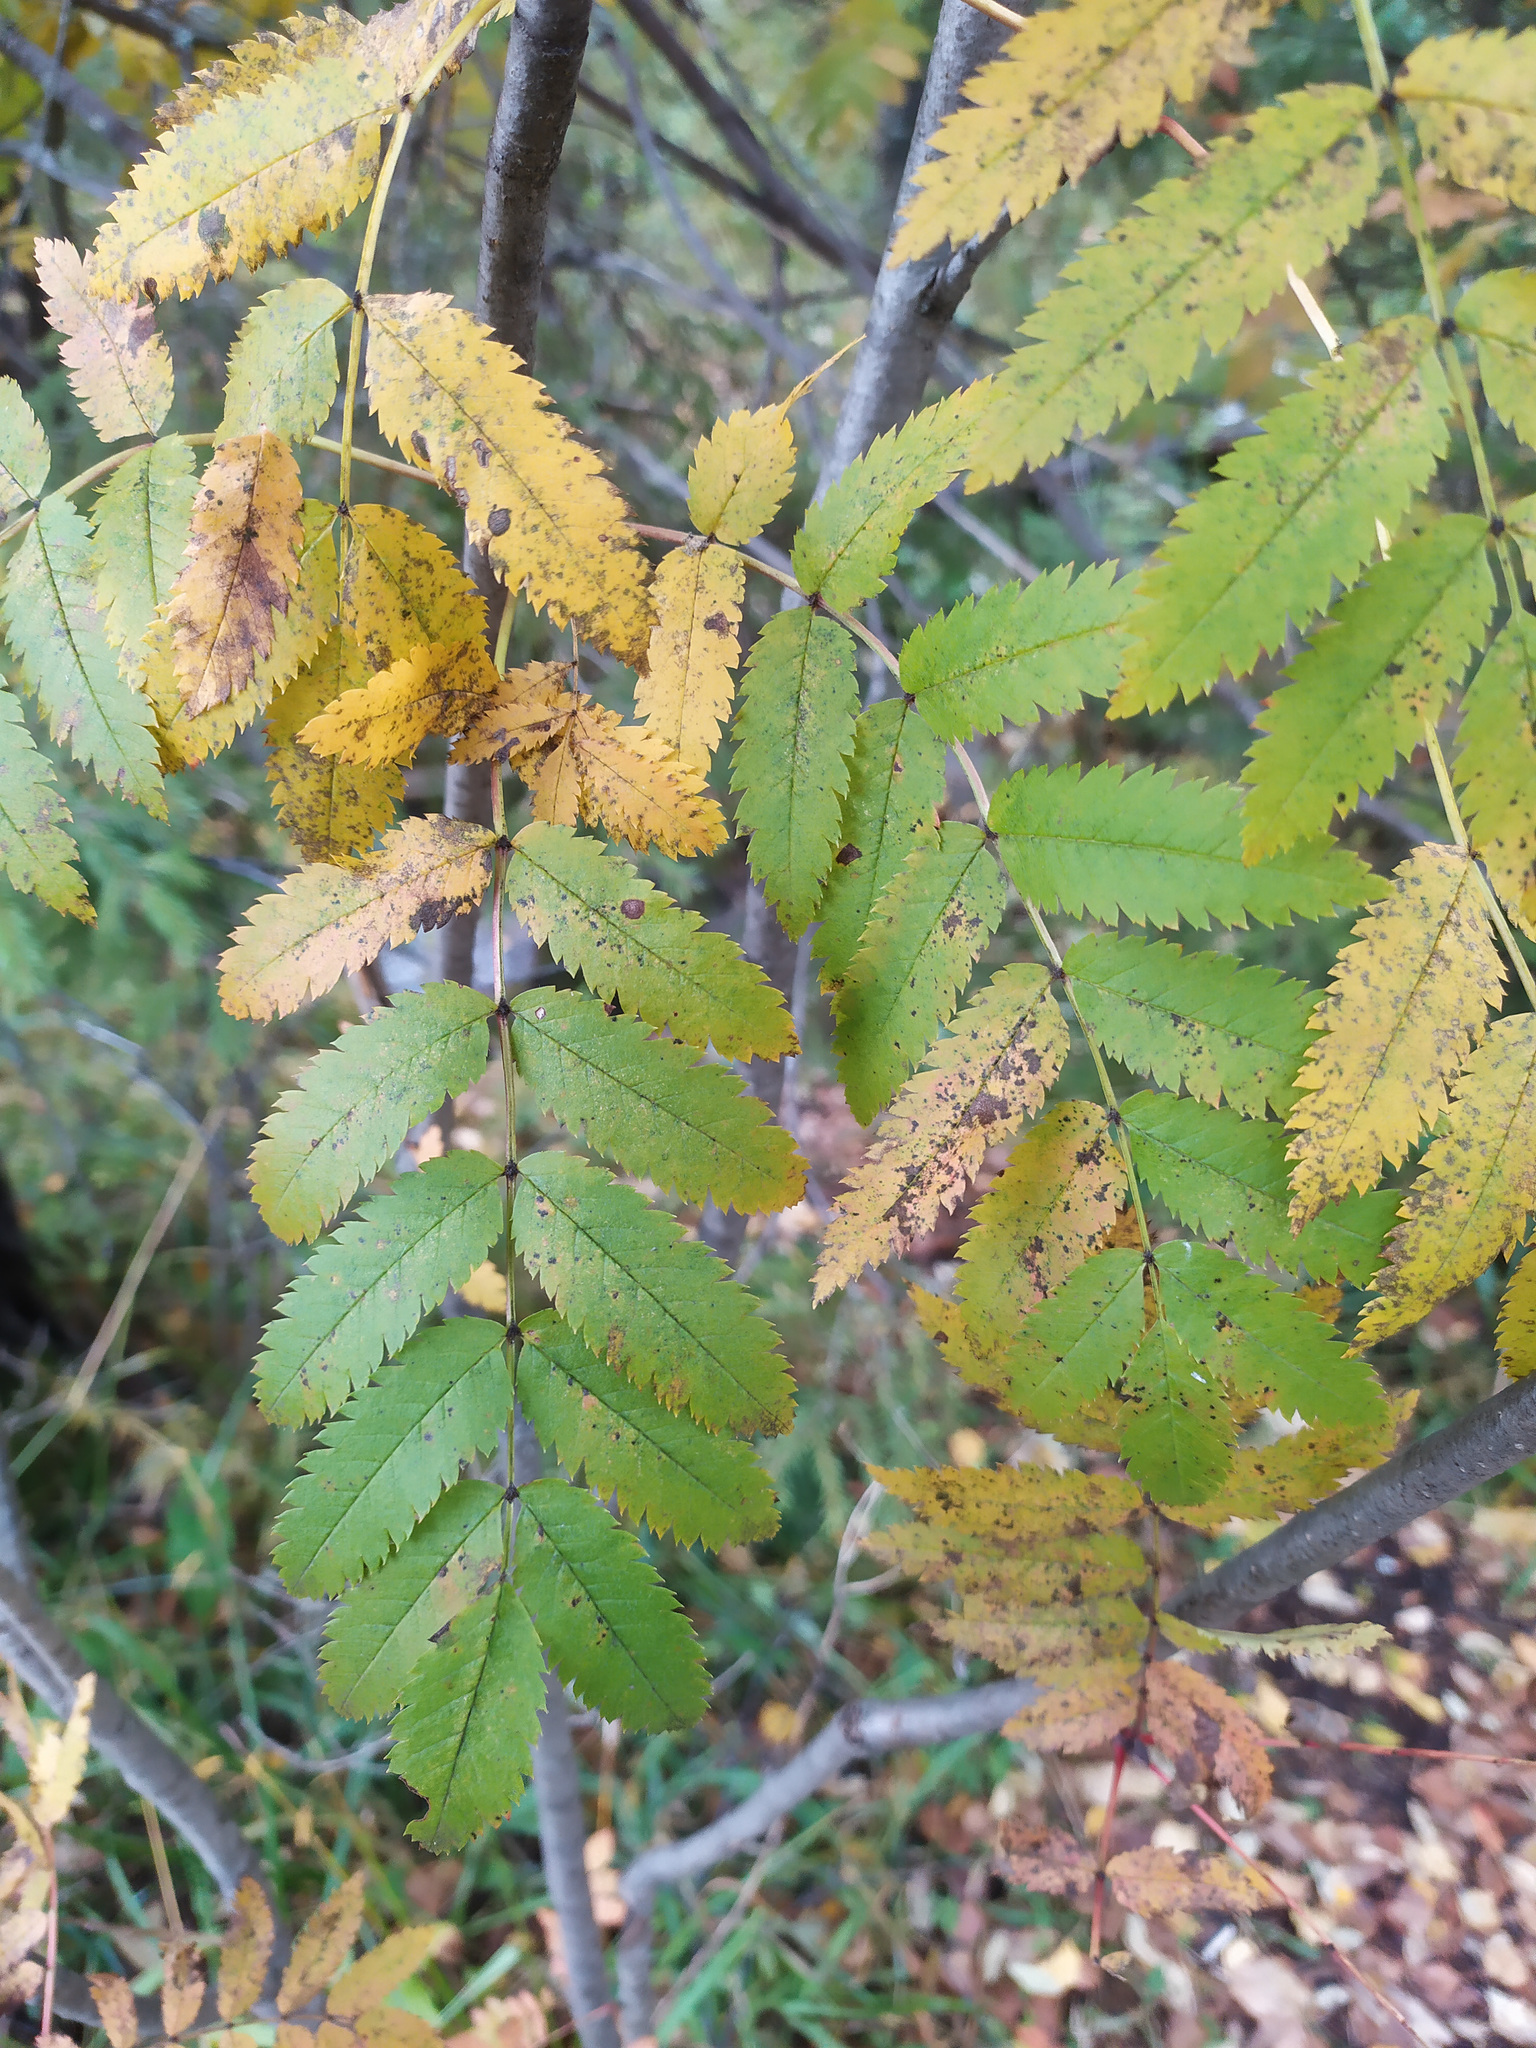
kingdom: Plantae
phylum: Tracheophyta
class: Magnoliopsida
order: Rosales
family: Rosaceae
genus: Sorbus
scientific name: Sorbus aucuparia
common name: Rowan
